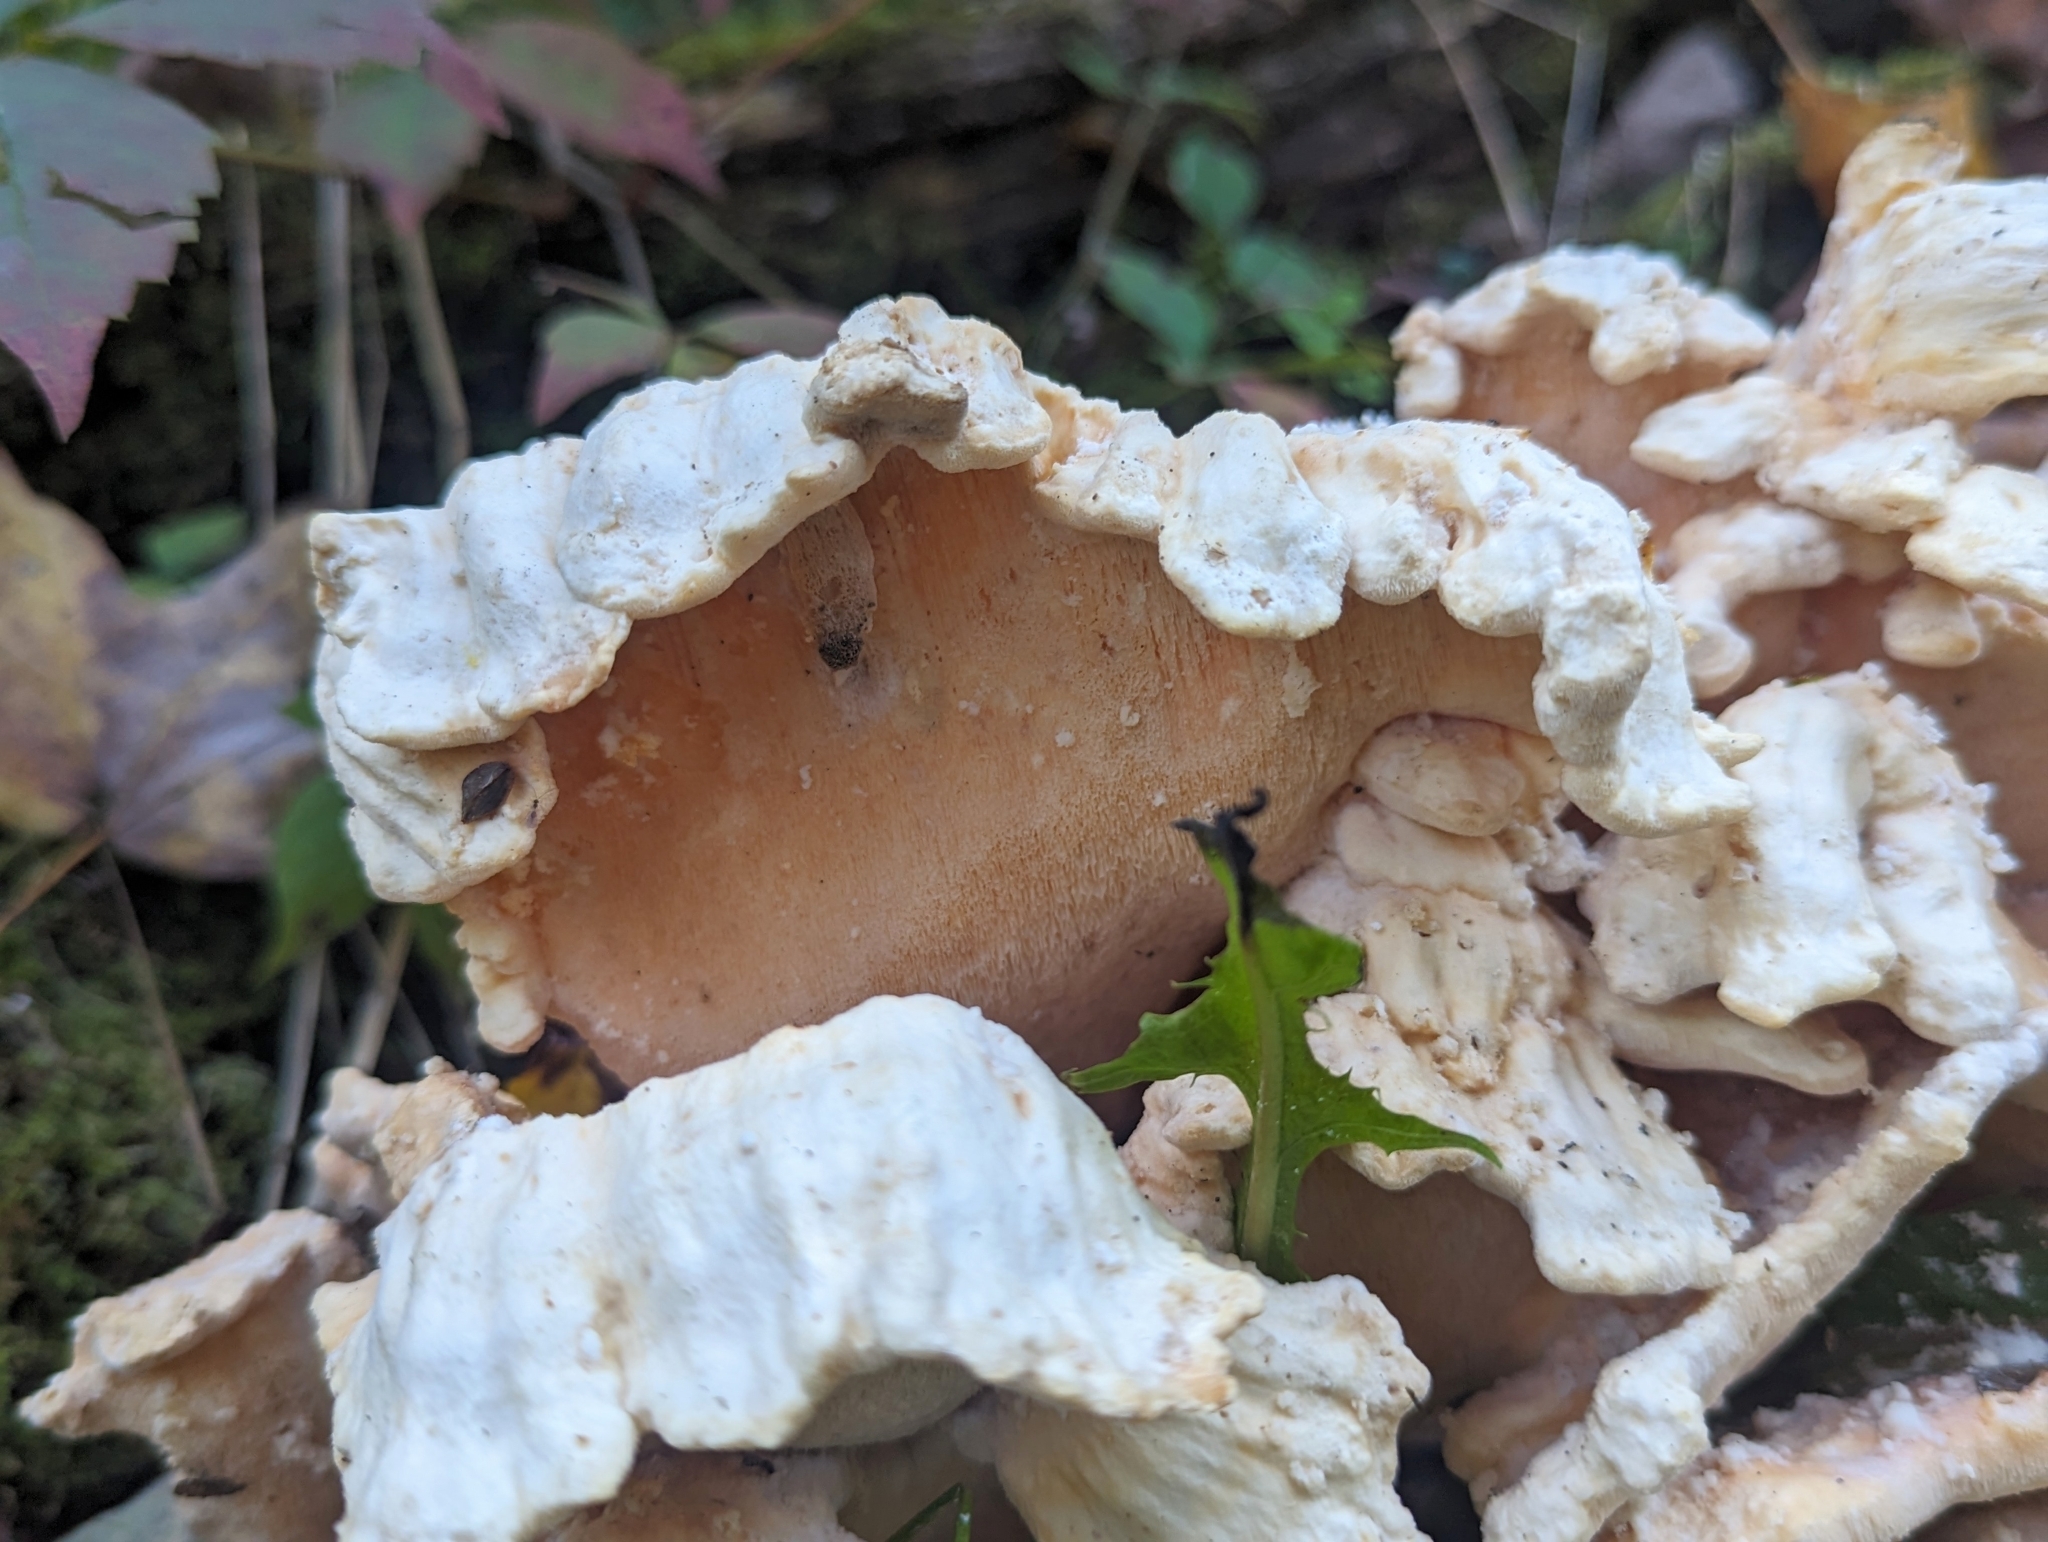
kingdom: Fungi
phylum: Basidiomycota
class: Agaricomycetes
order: Polyporales
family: Laetiporaceae
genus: Laetiporus
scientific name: Laetiporus sulphureus
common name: Chicken of the woods
